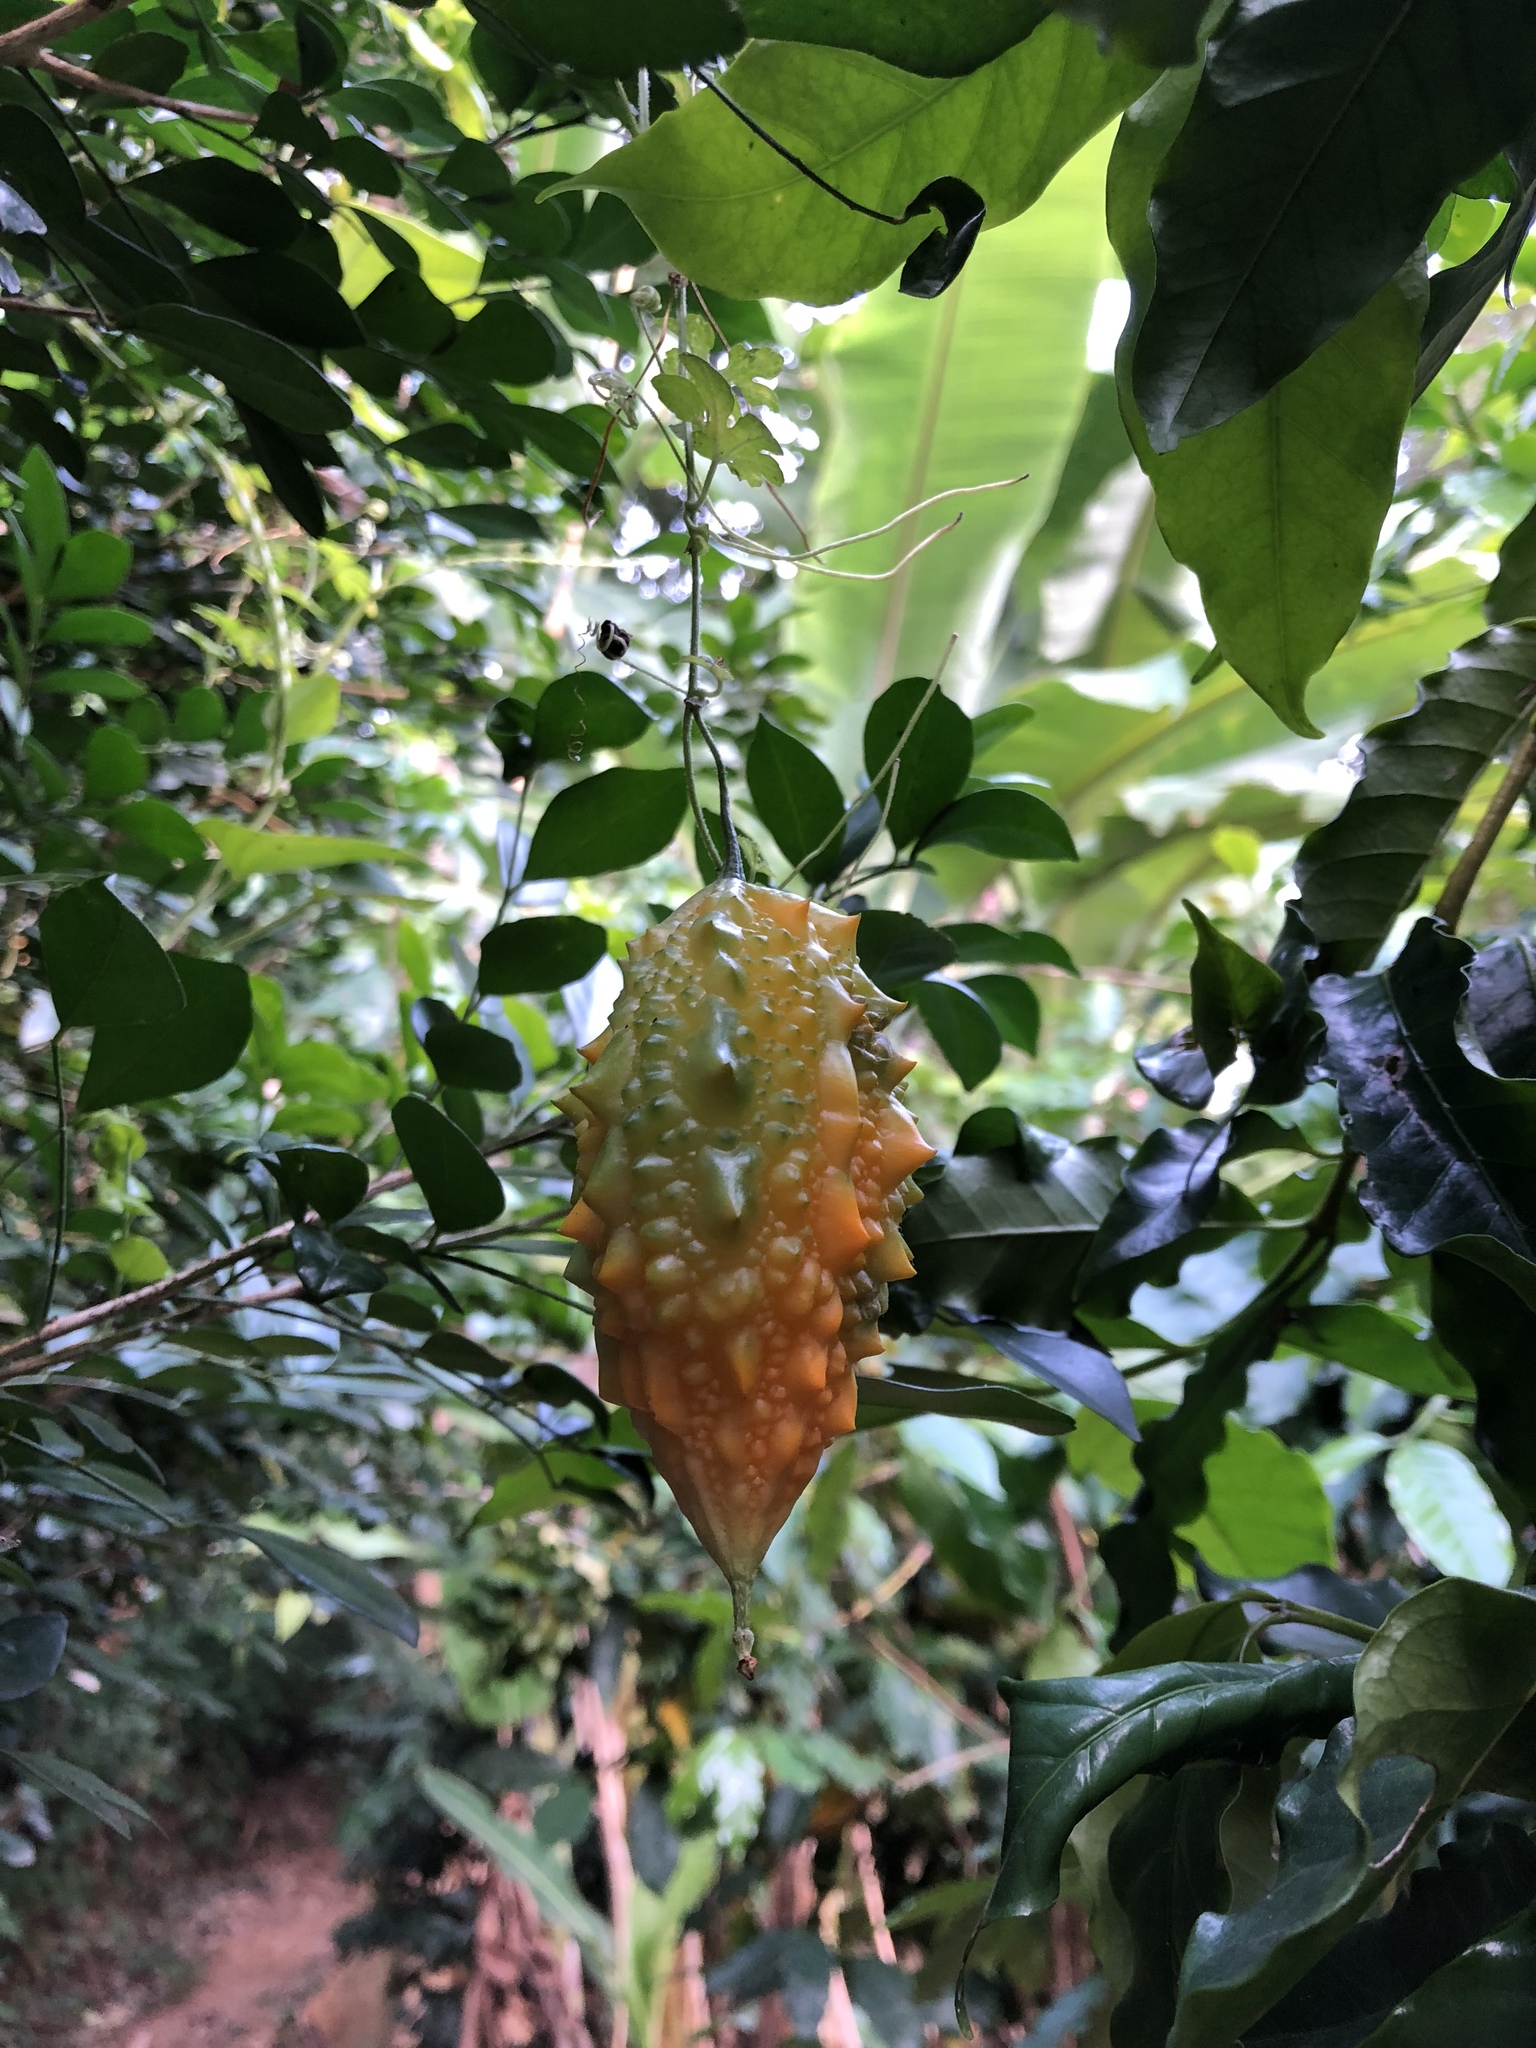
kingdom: Plantae
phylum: Tracheophyta
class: Magnoliopsida
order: Cucurbitales
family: Cucurbitaceae
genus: Momordica
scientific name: Momordica charantia
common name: Balsampear
